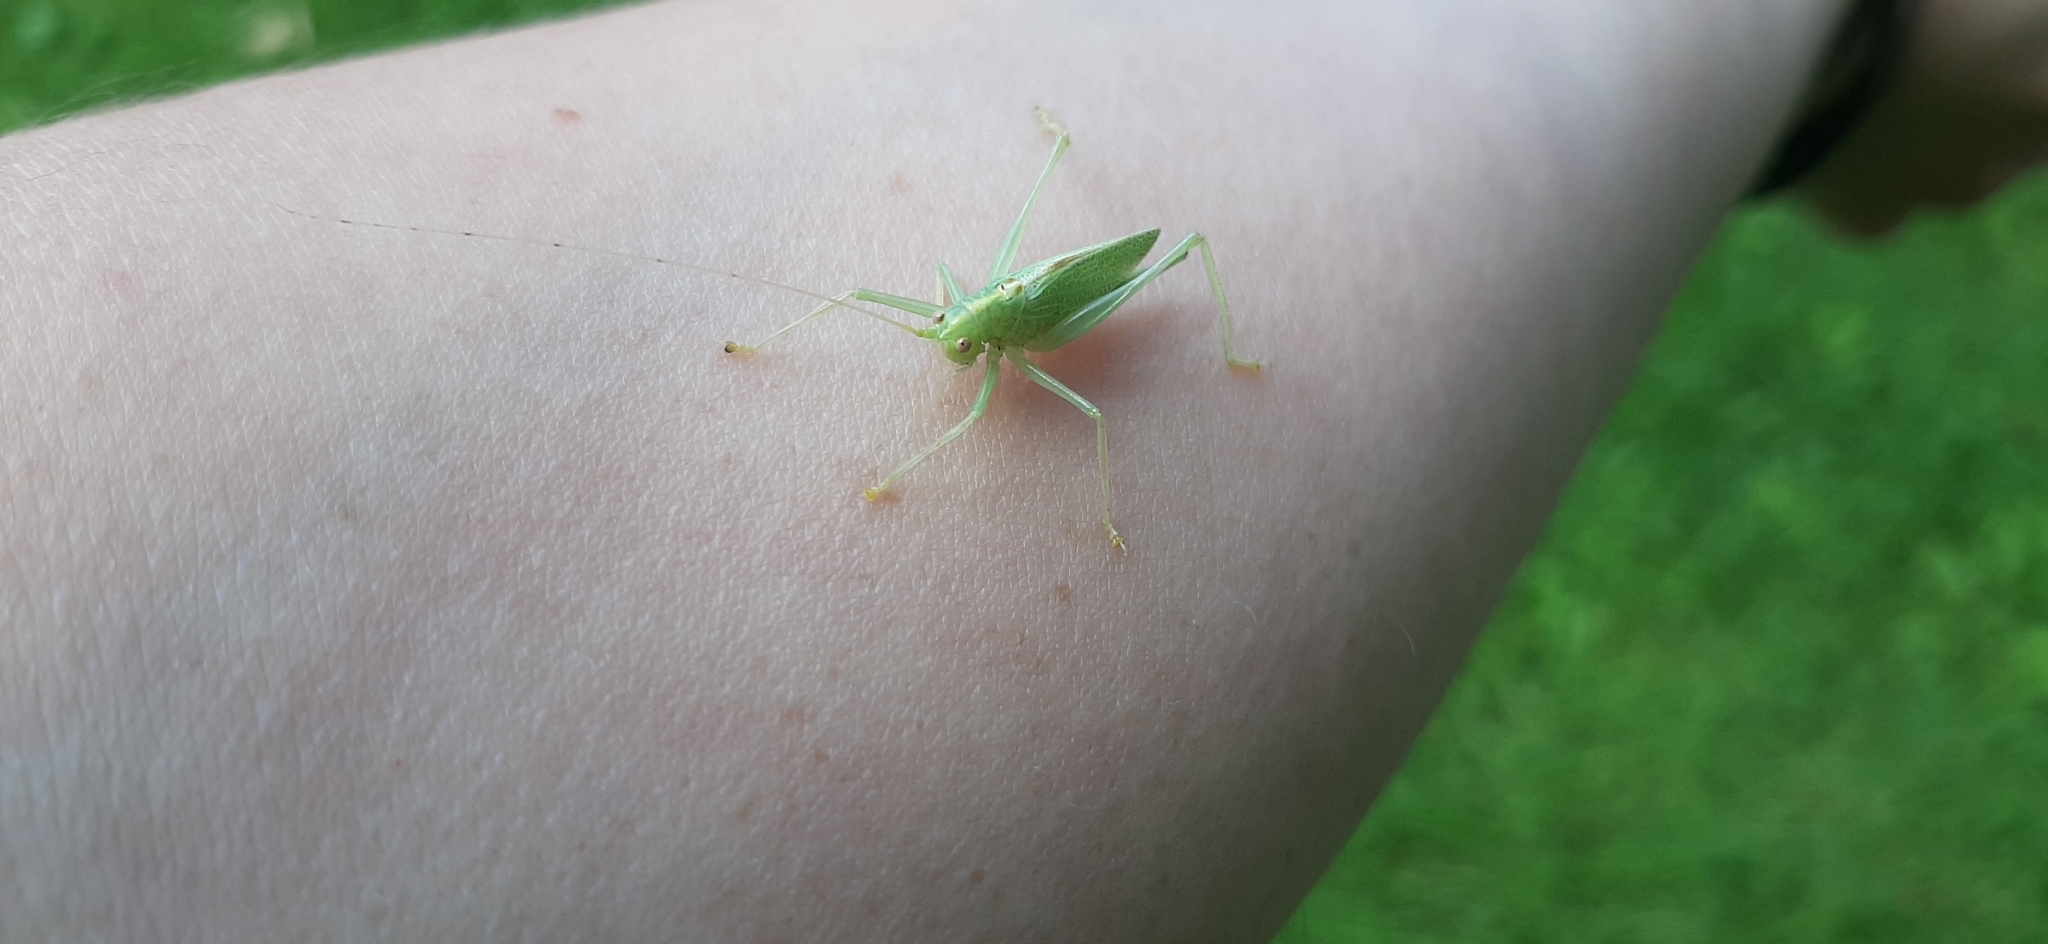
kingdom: Animalia
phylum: Arthropoda
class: Insecta
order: Orthoptera
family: Tettigoniidae
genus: Meconema
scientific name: Meconema thalassinum
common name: Oak bush-cricket
